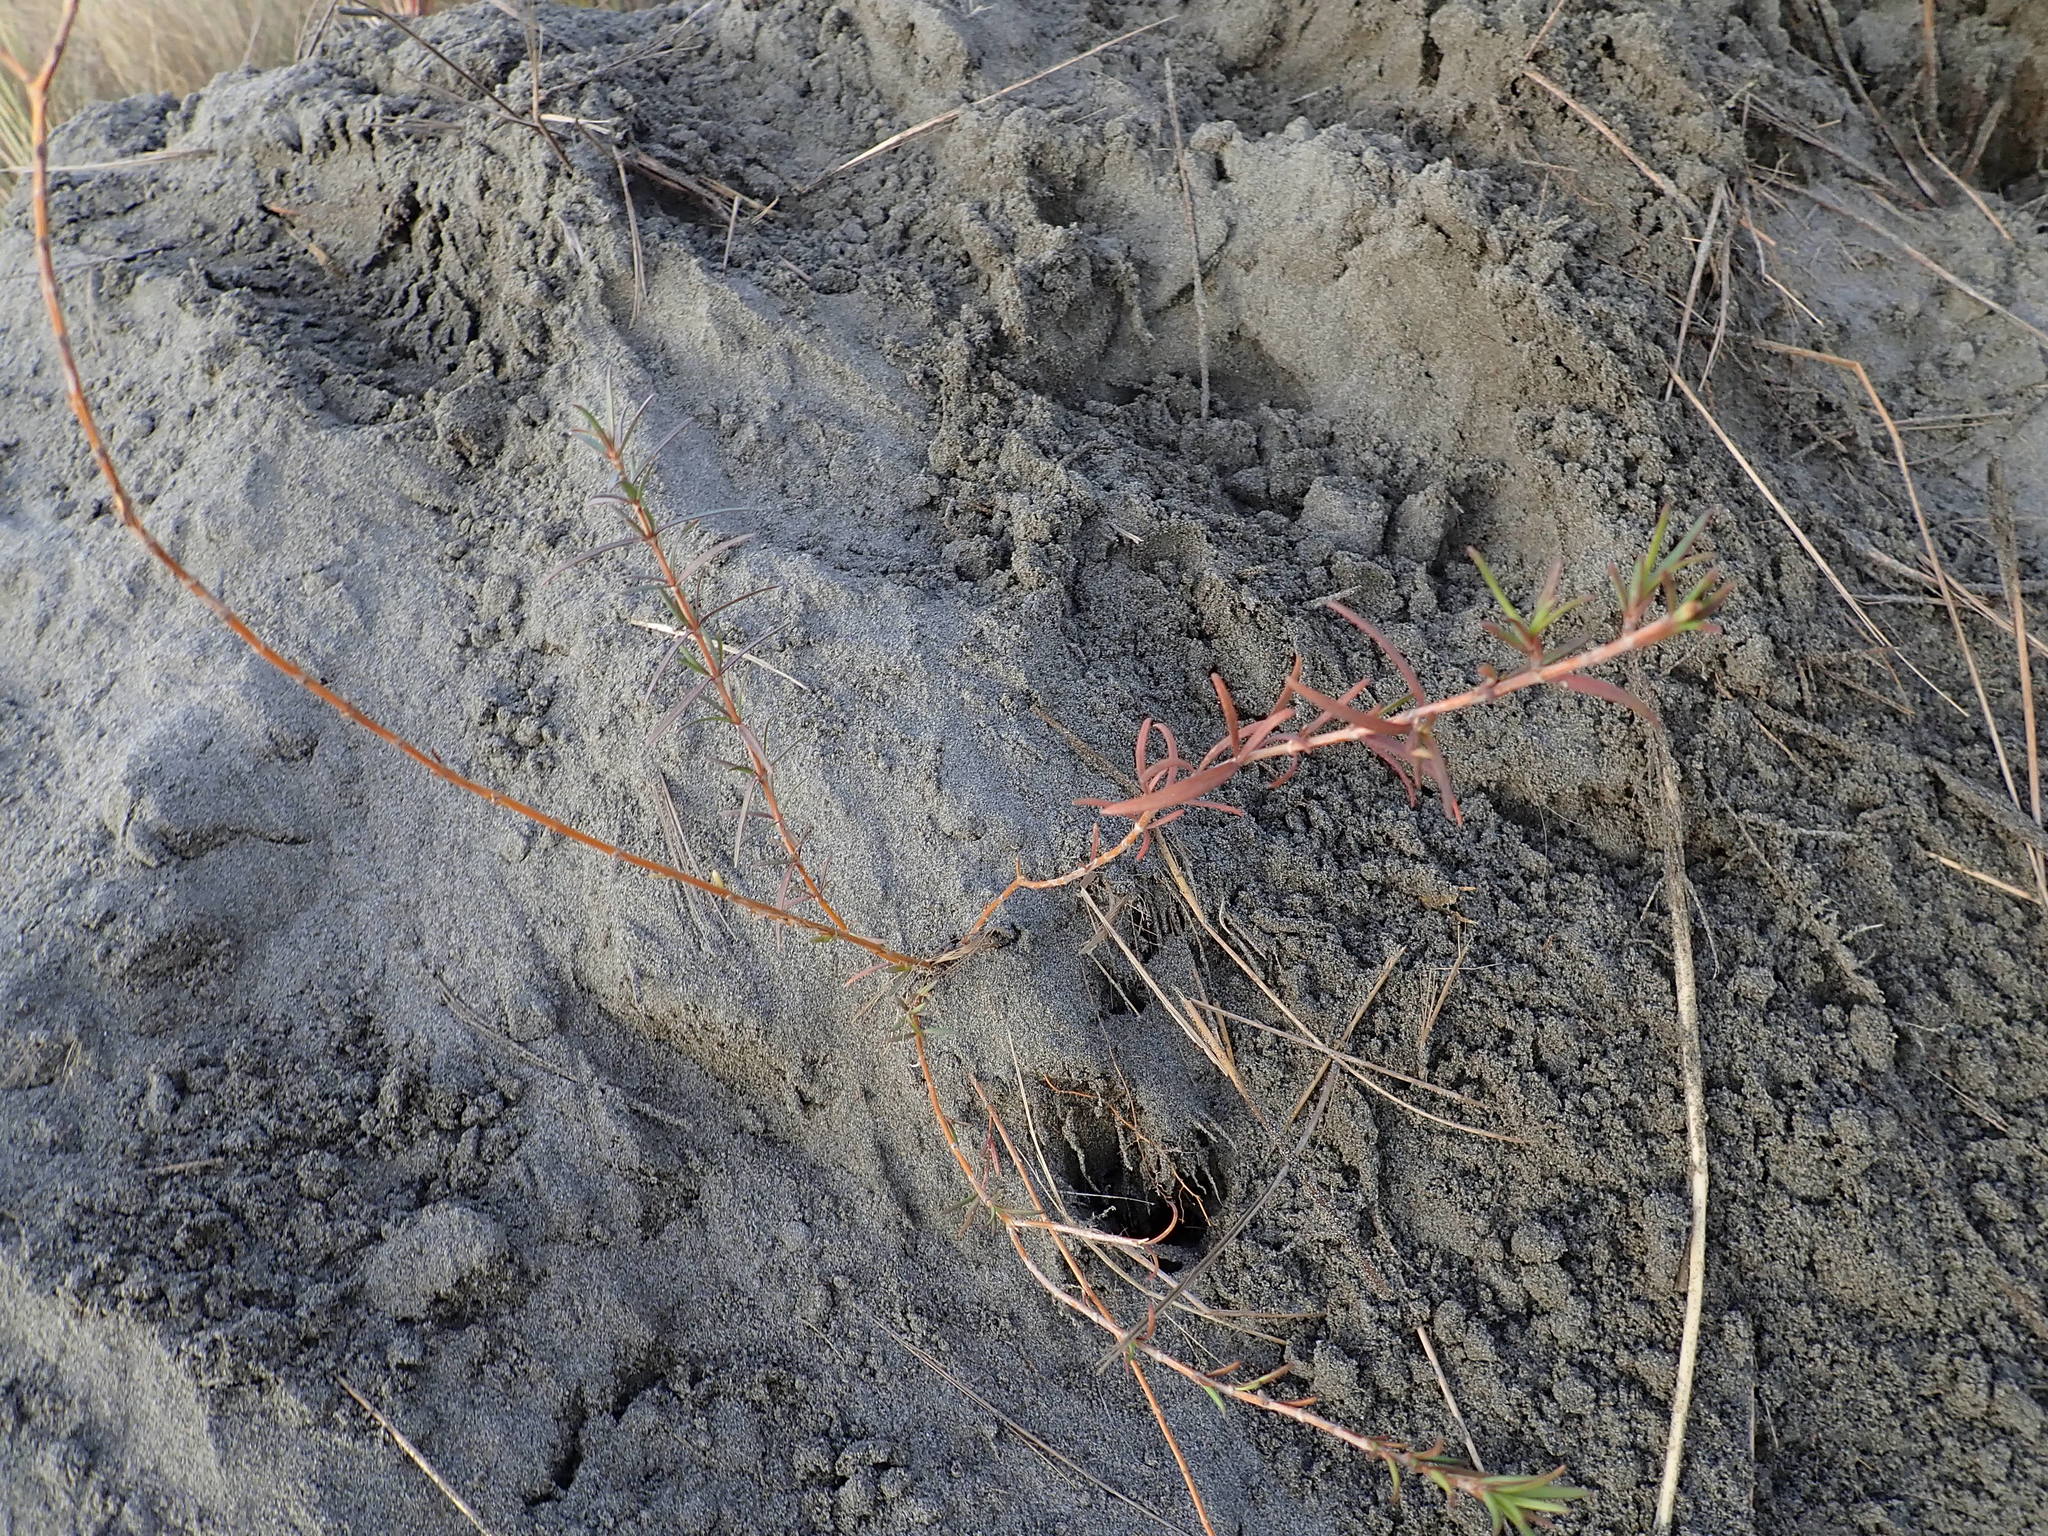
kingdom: Plantae
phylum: Tracheophyta
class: Magnoliopsida
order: Gentianales
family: Rubiaceae
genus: Coprosma
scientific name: Coprosma acerosa
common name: Sand coprosma
